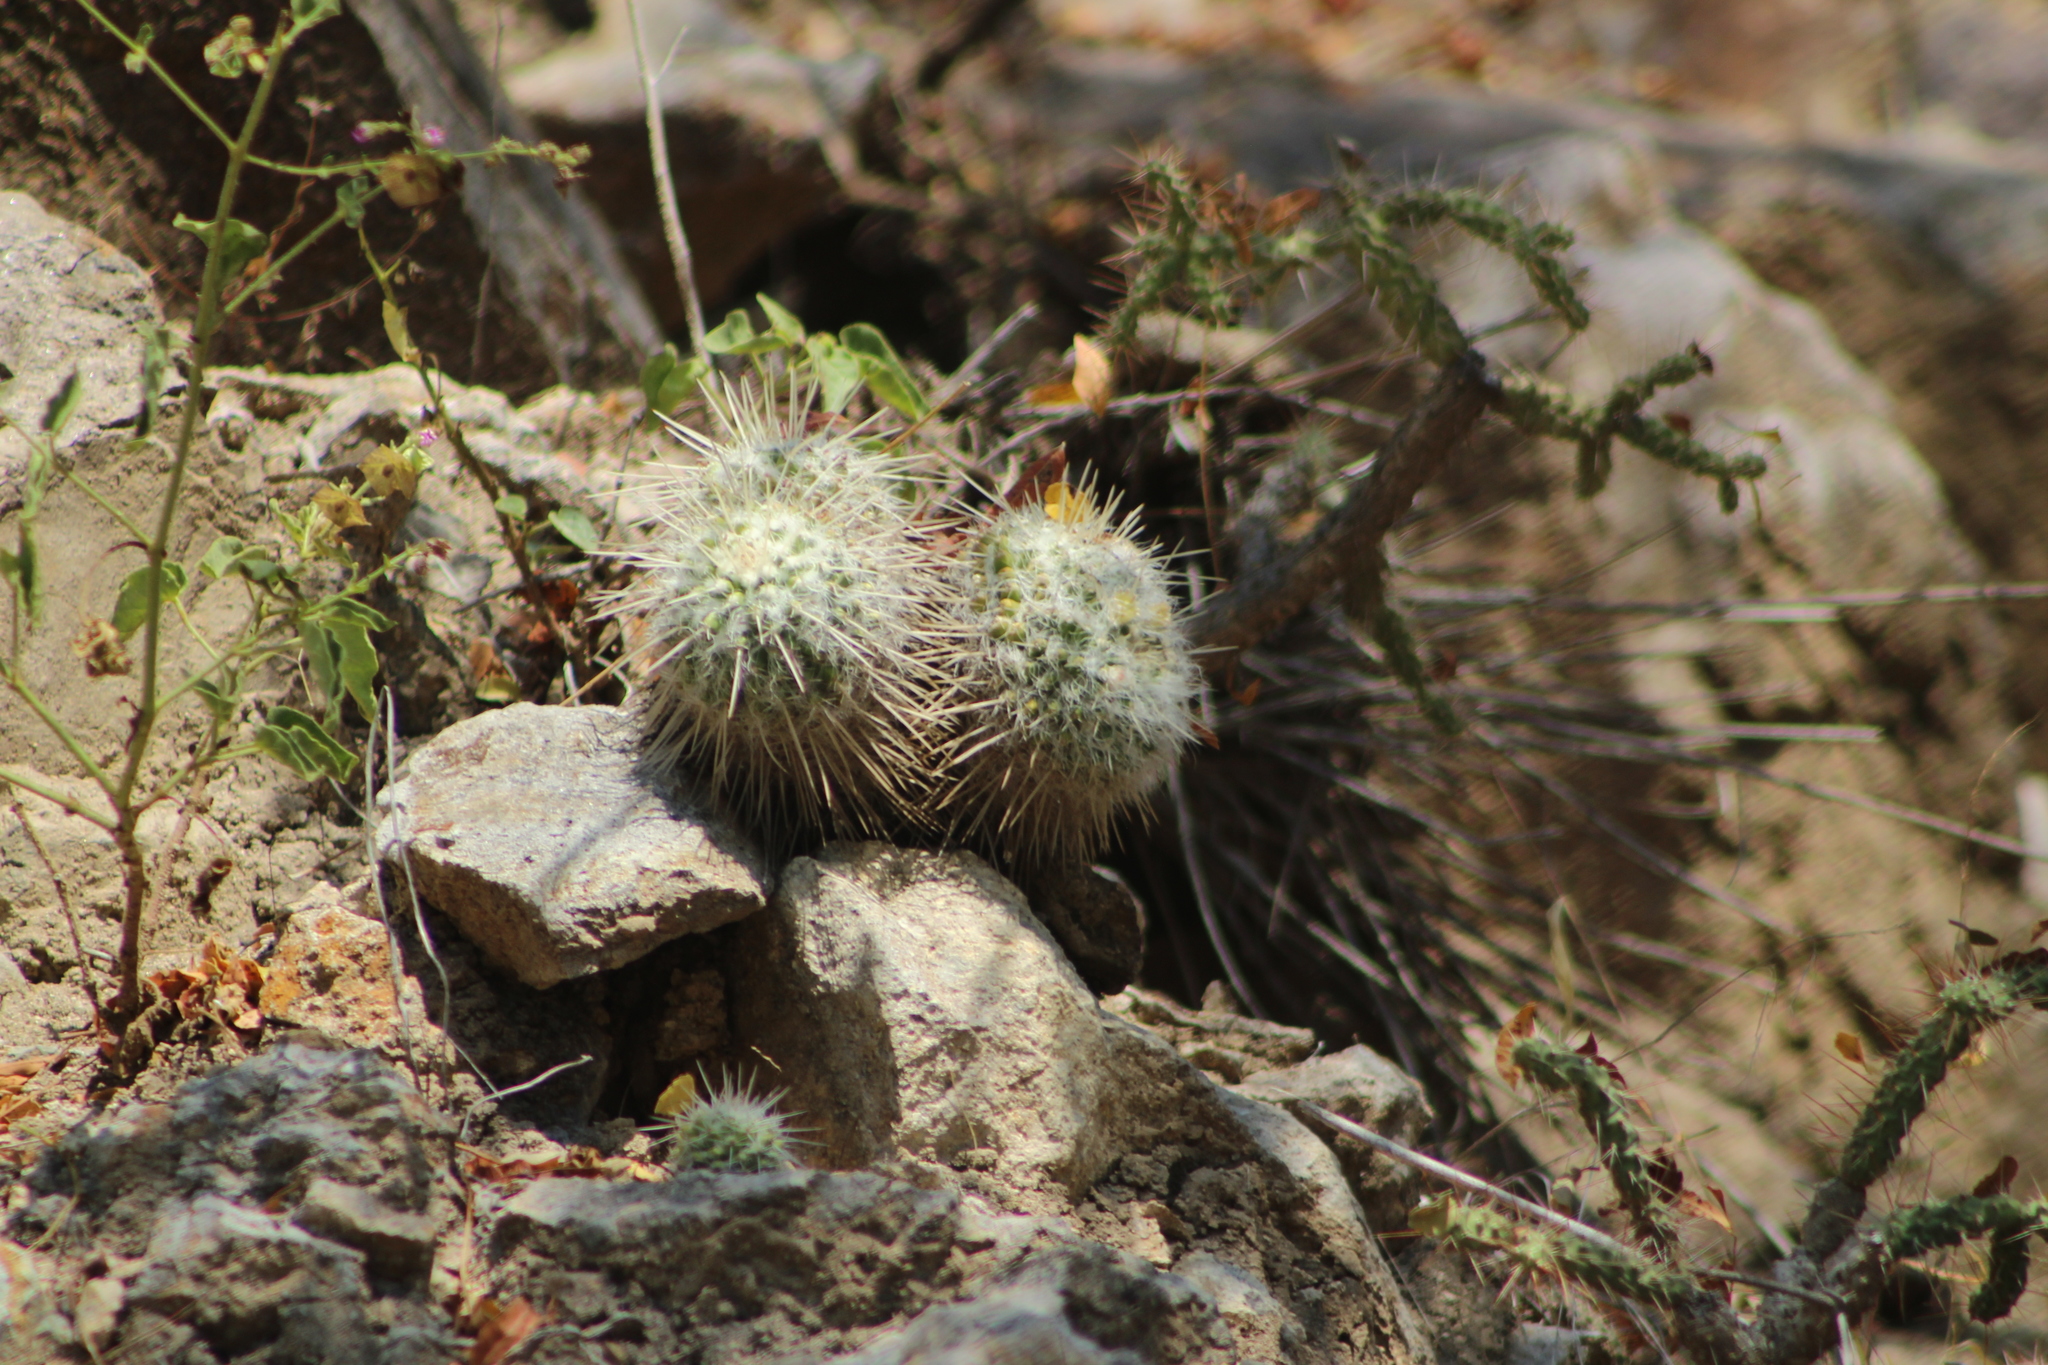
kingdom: Plantae
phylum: Tracheophyta
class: Magnoliopsida
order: Caryophyllales
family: Cactaceae
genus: Mammillaria
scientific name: Mammillaria karwinskiana
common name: Royal cross
